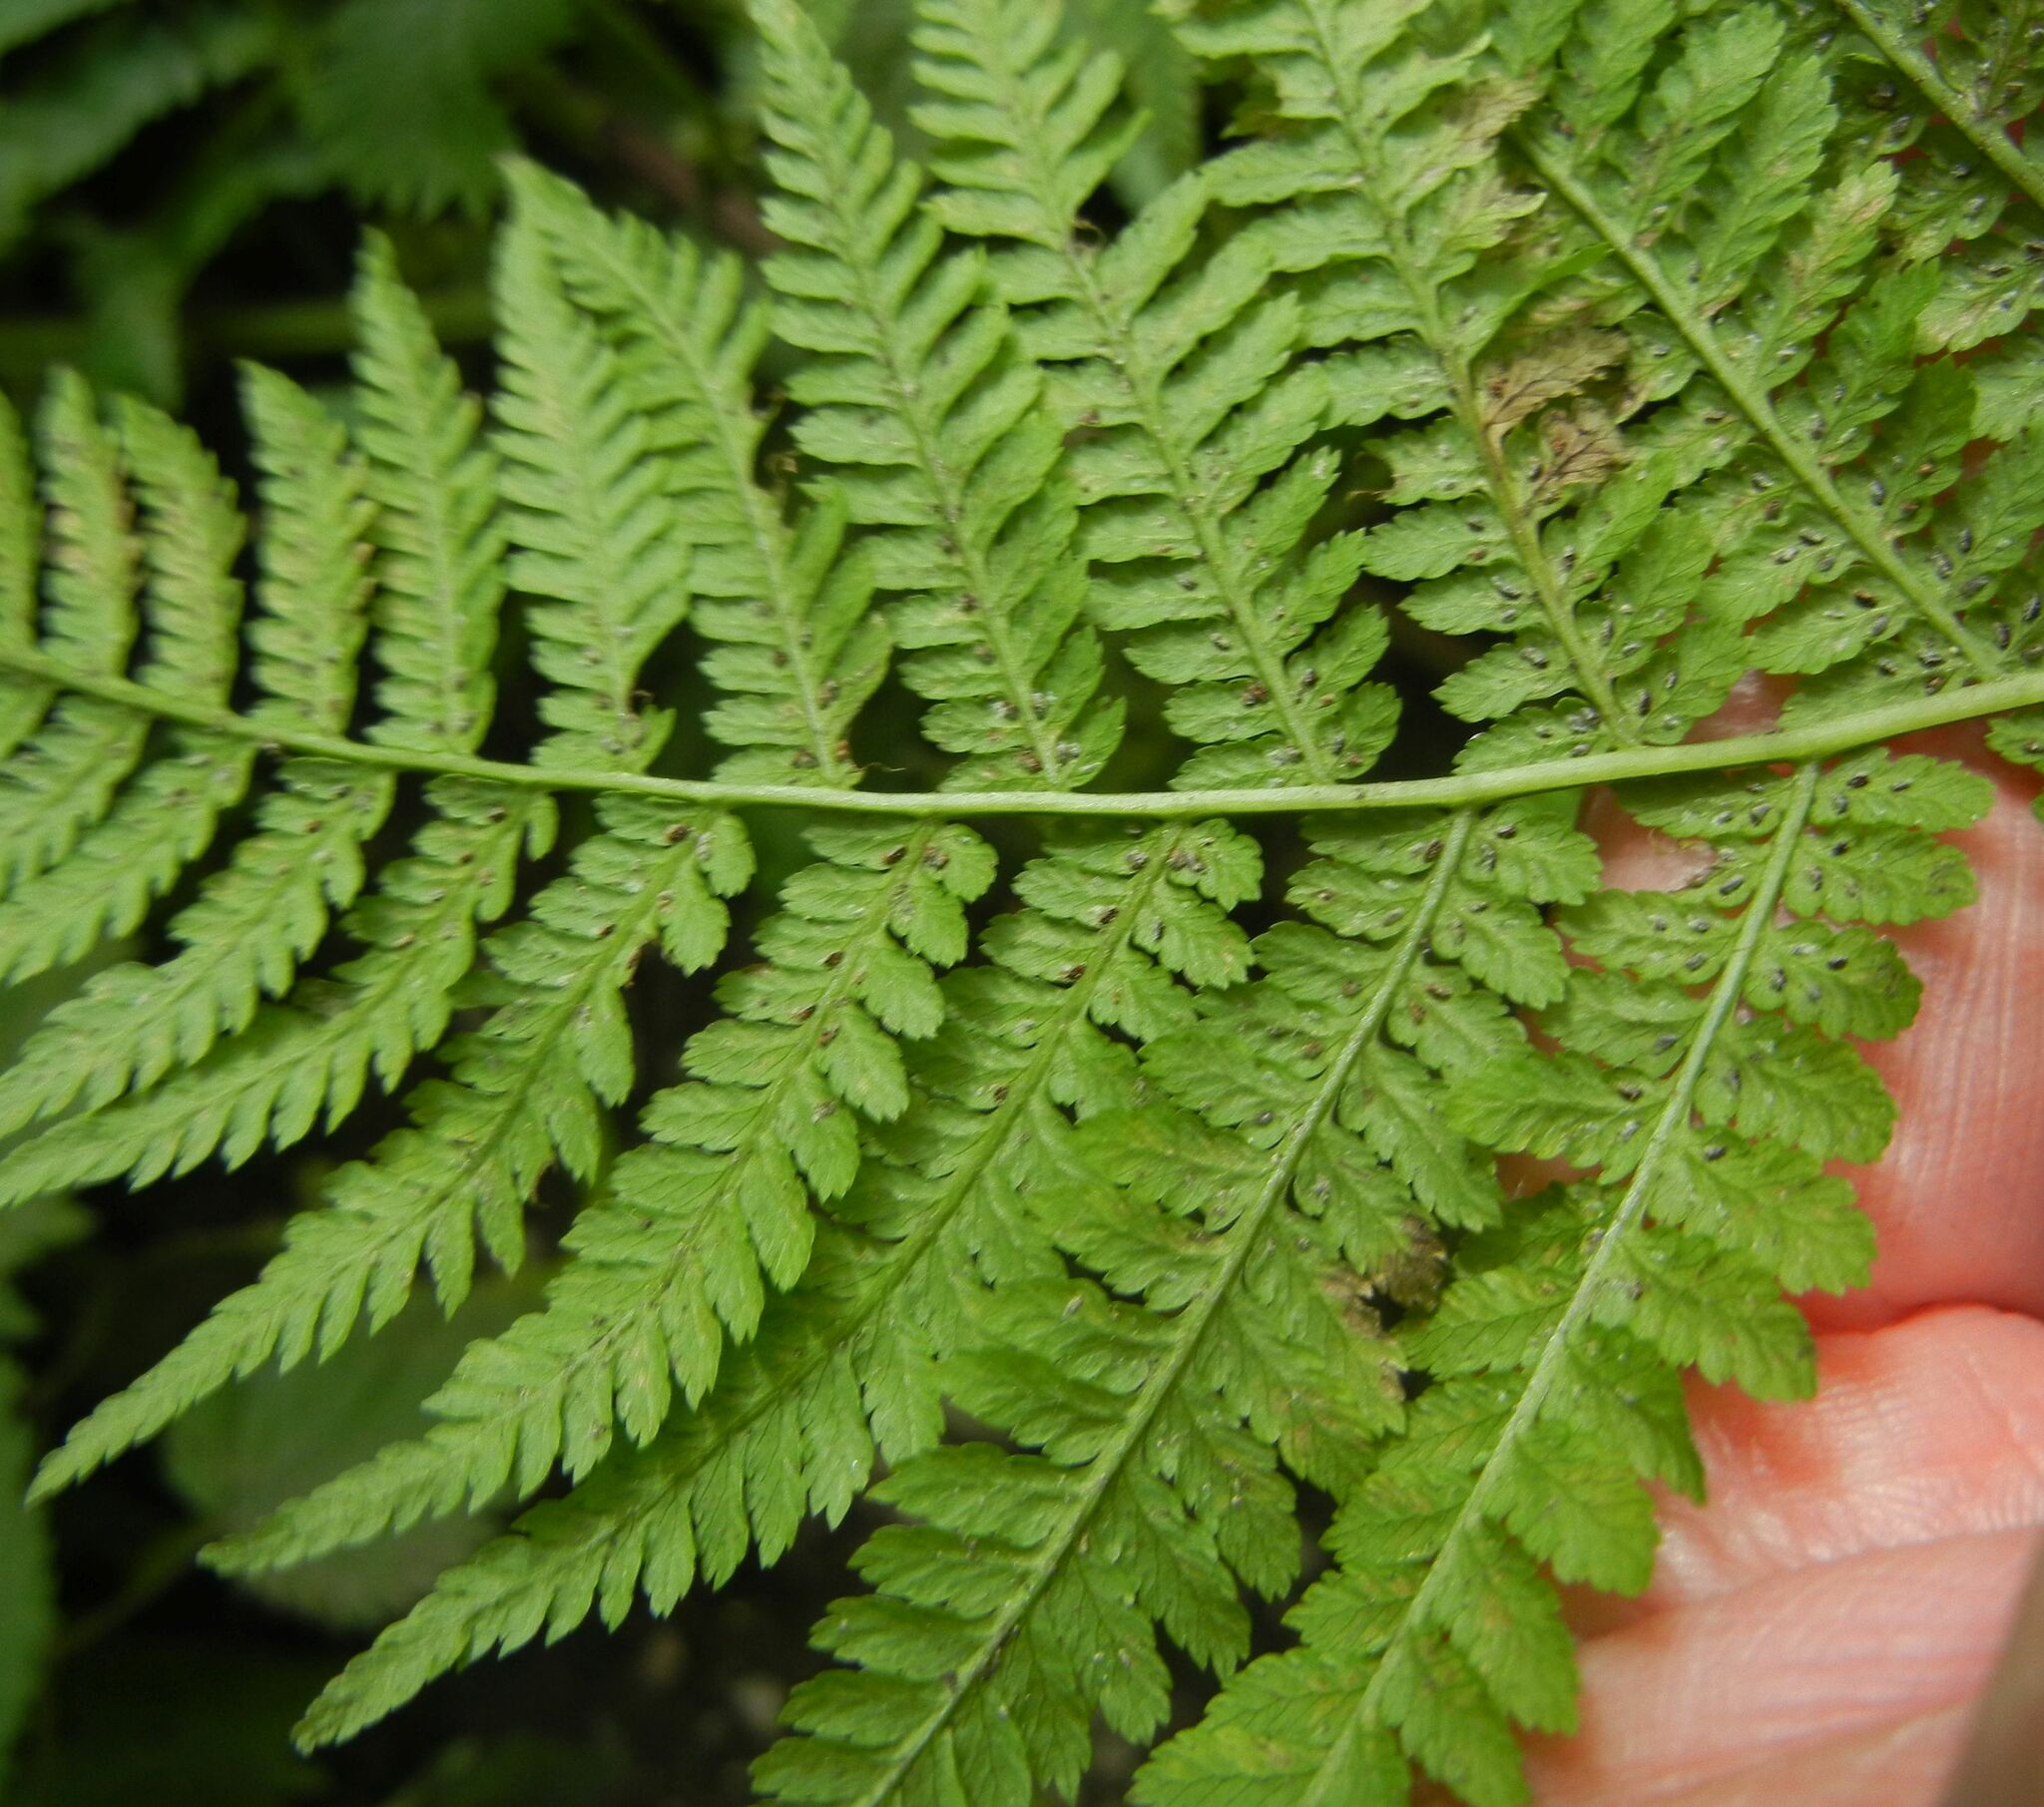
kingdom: Plantae
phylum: Tracheophyta
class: Polypodiopsida
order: Polypodiales
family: Athyriaceae
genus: Athyrium
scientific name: Athyrium filix-femina
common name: Lady fern
